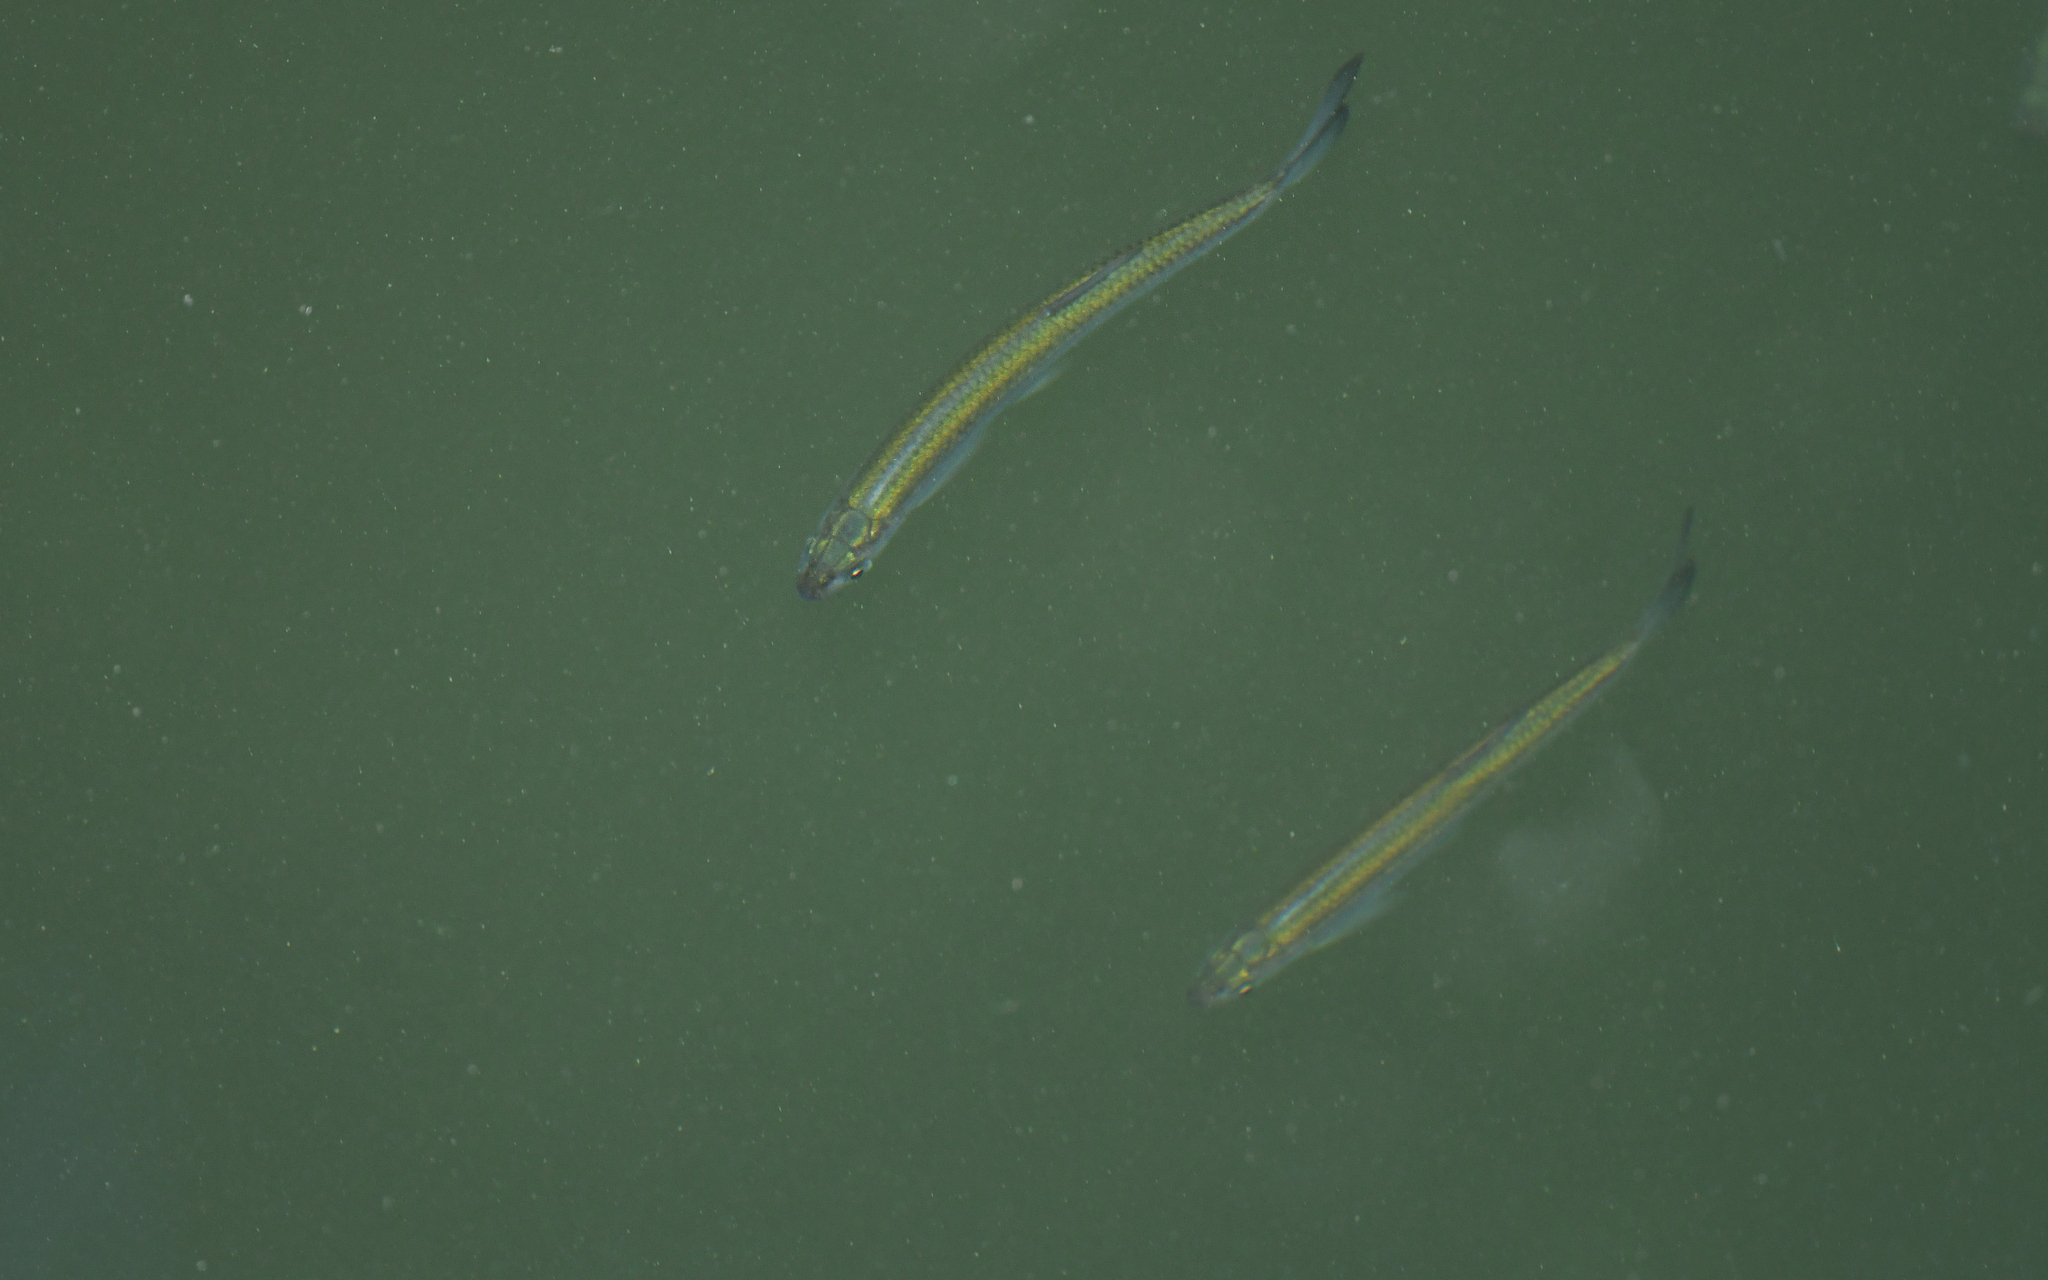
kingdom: Animalia
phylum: Chordata
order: Cypriniformes
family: Cyprinidae
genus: Alburnus
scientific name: Alburnus alburnus
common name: Bleak
